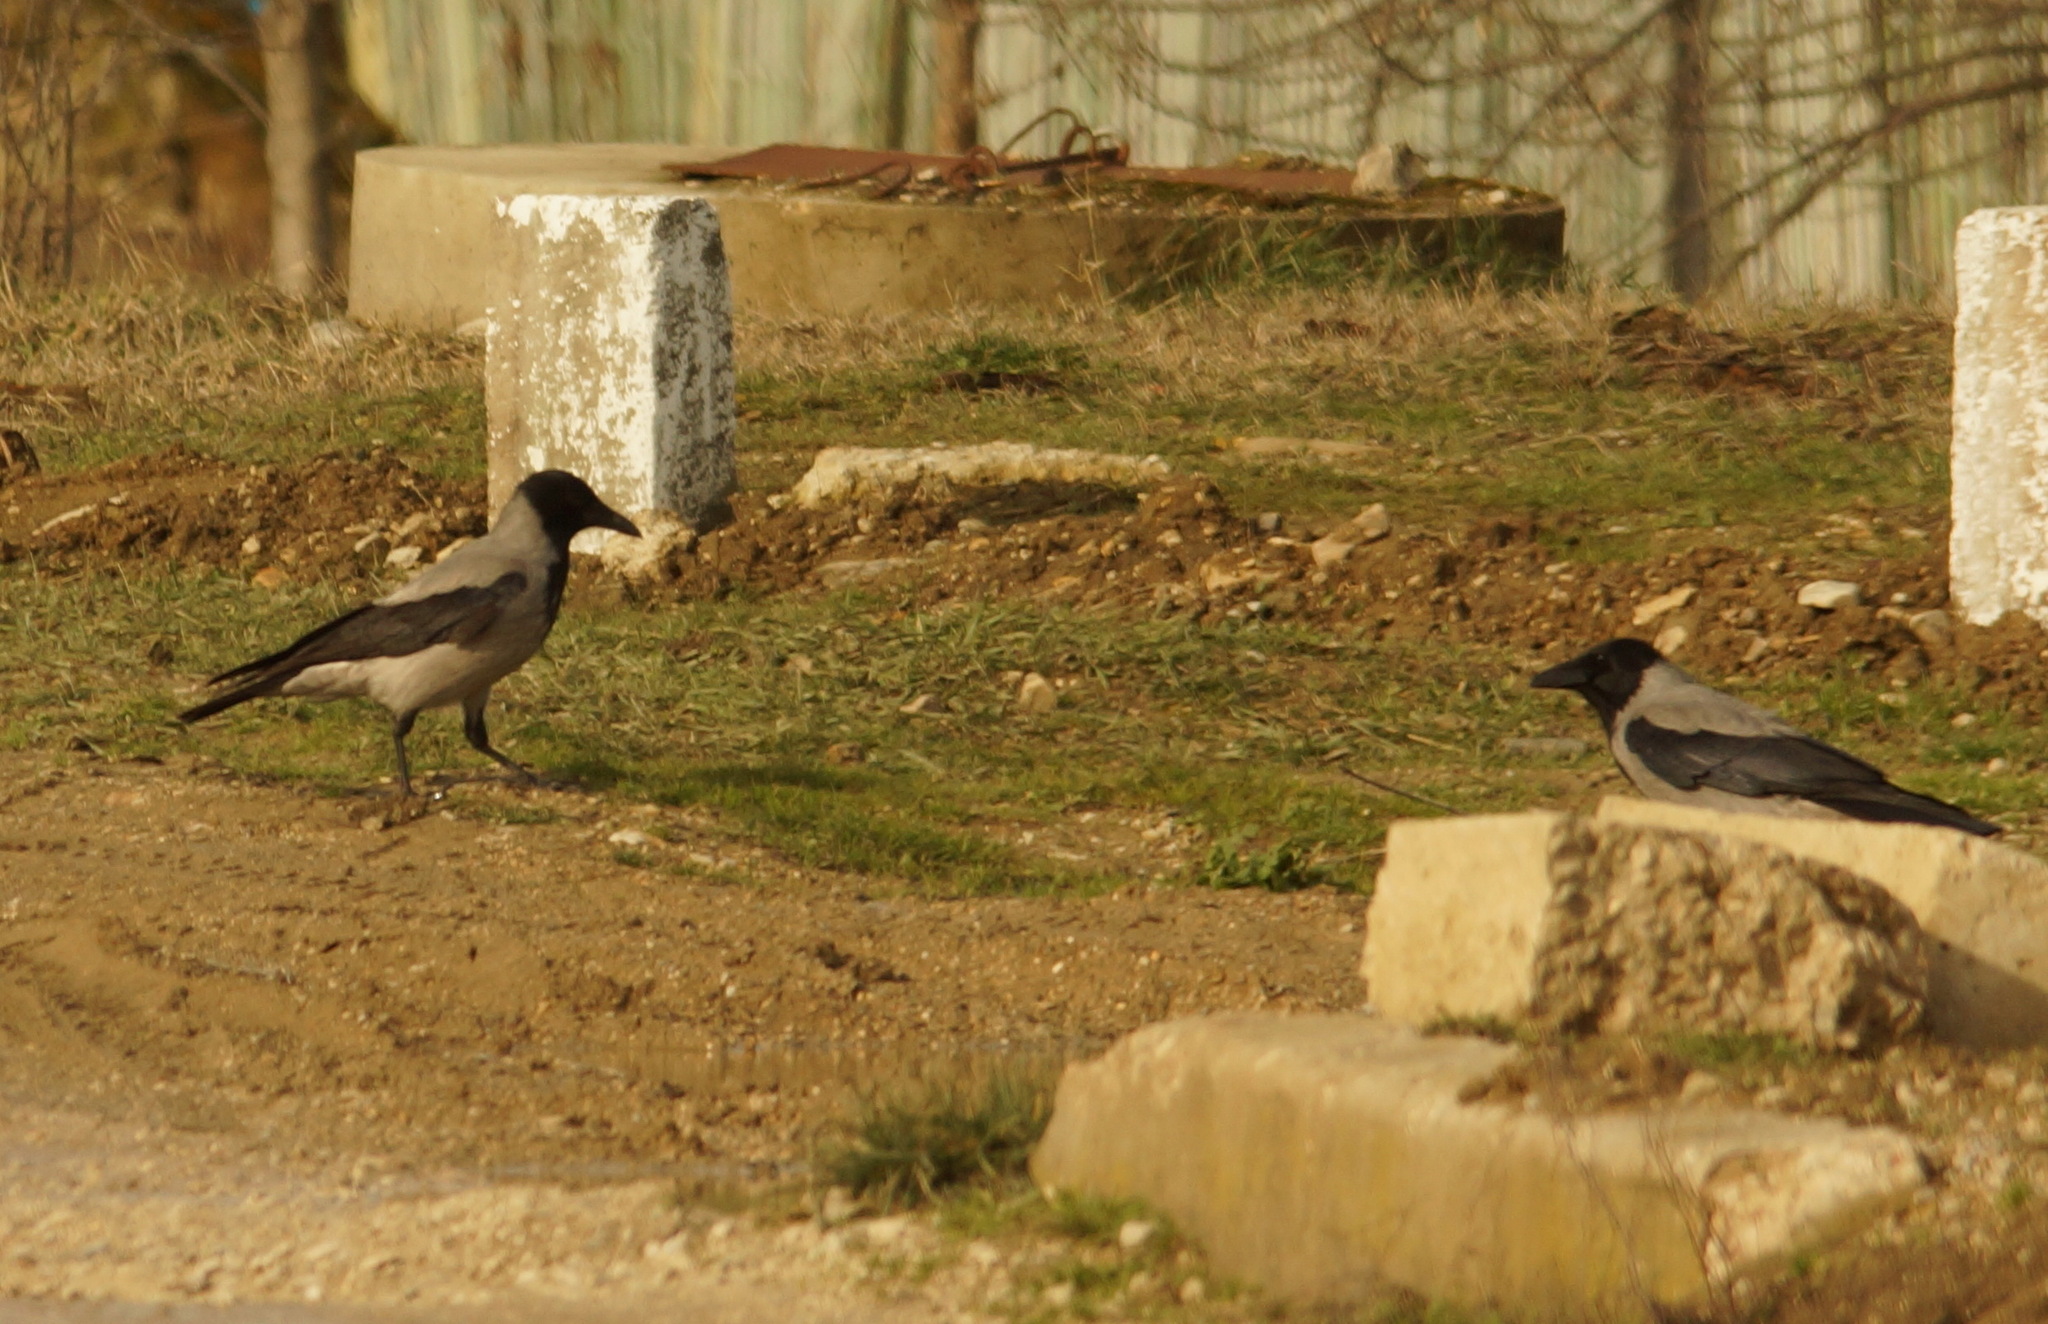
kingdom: Animalia
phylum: Chordata
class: Aves
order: Passeriformes
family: Corvidae
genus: Corvus
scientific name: Corvus cornix
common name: Hooded crow
